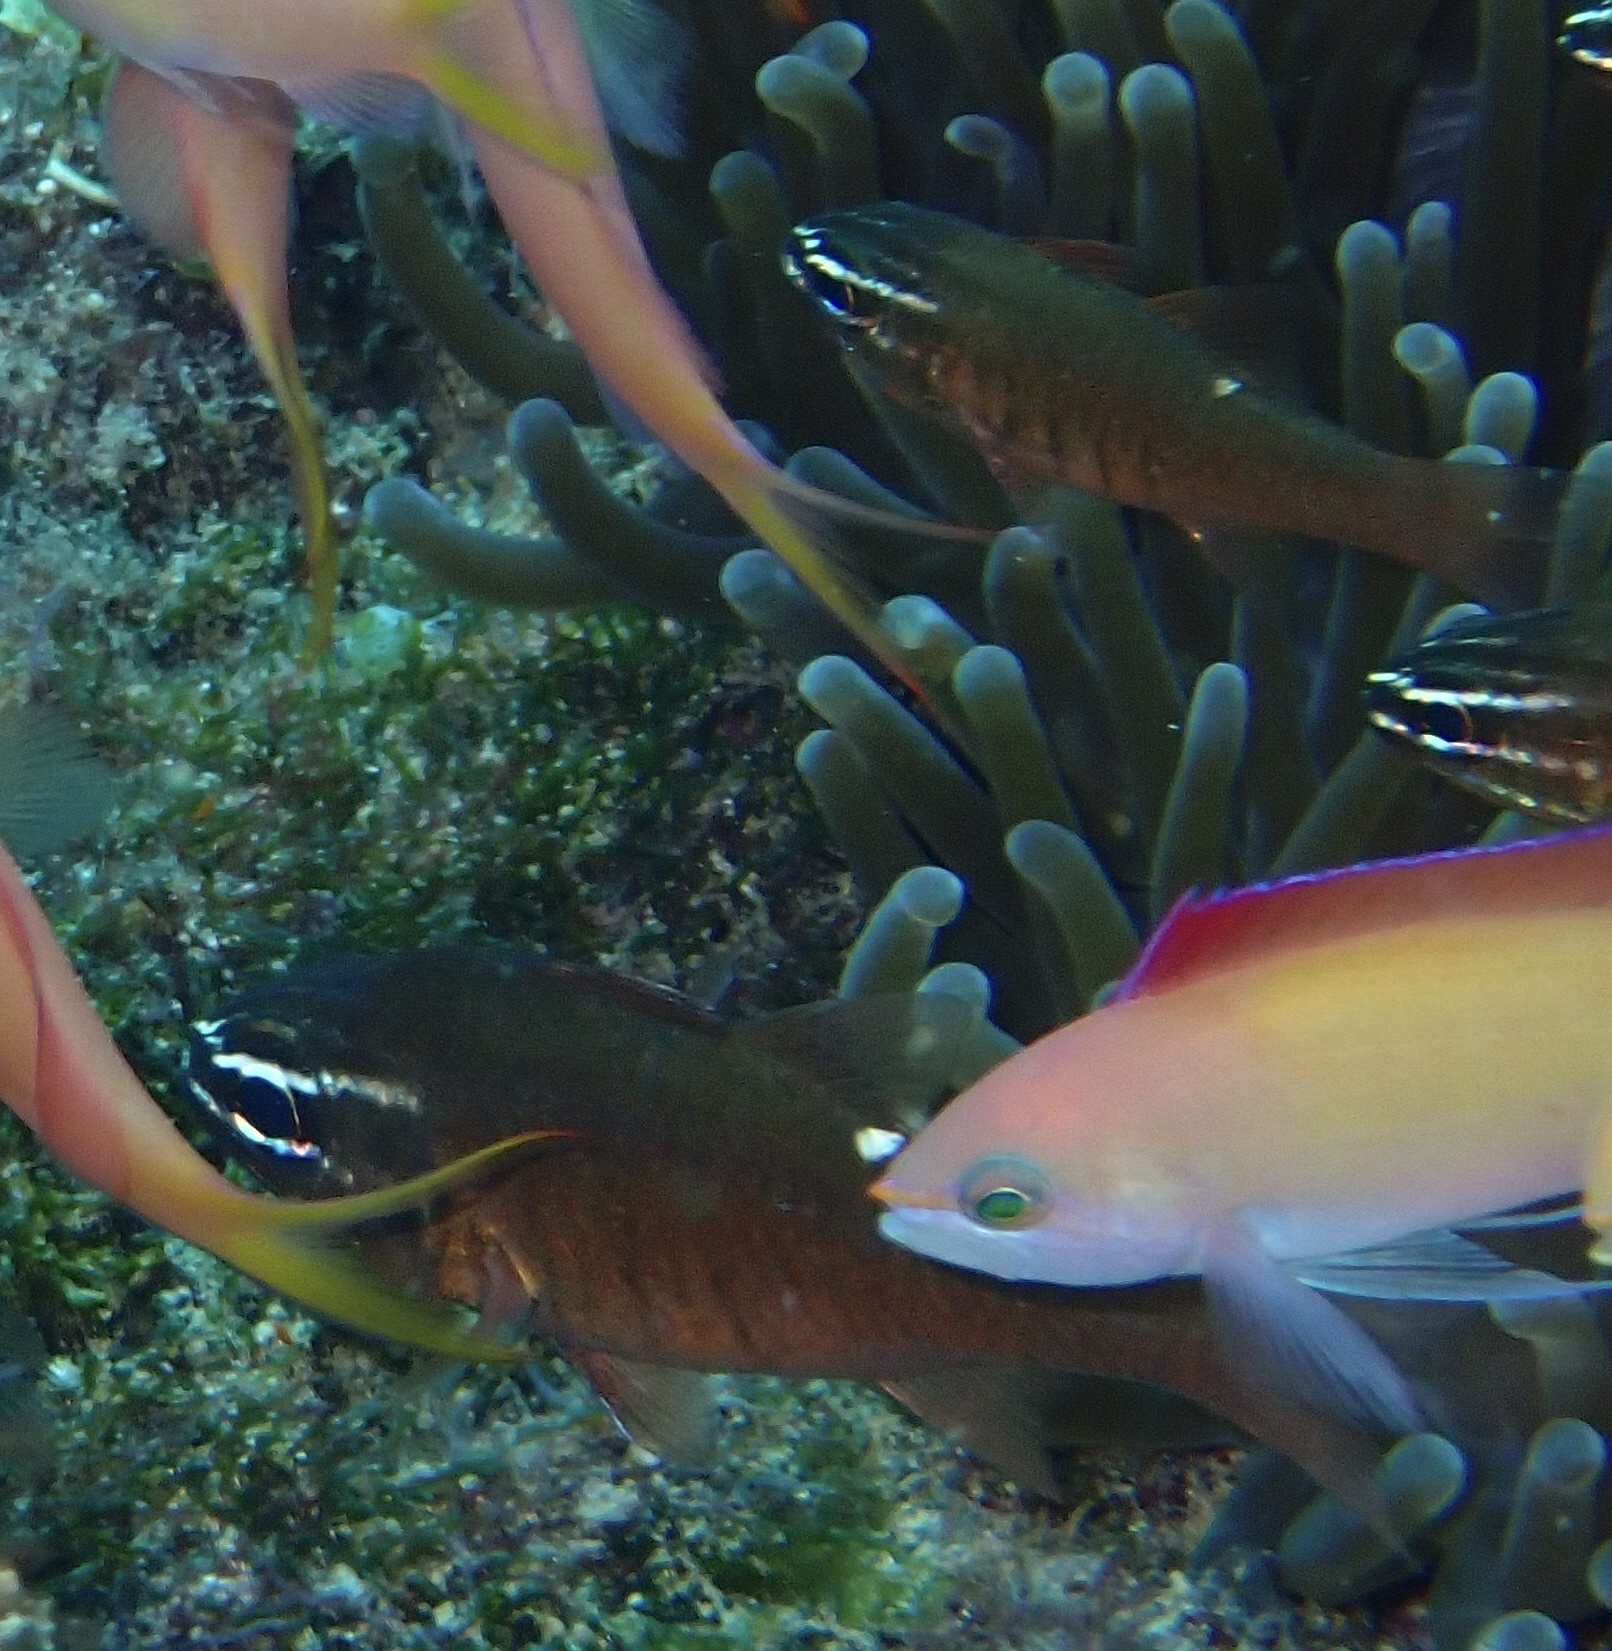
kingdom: Animalia
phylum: Chordata
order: Perciformes
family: Apogonidae
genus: Ostorhinchus
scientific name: Ostorhinchus moluccensis
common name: Moluccan cardinalfish
